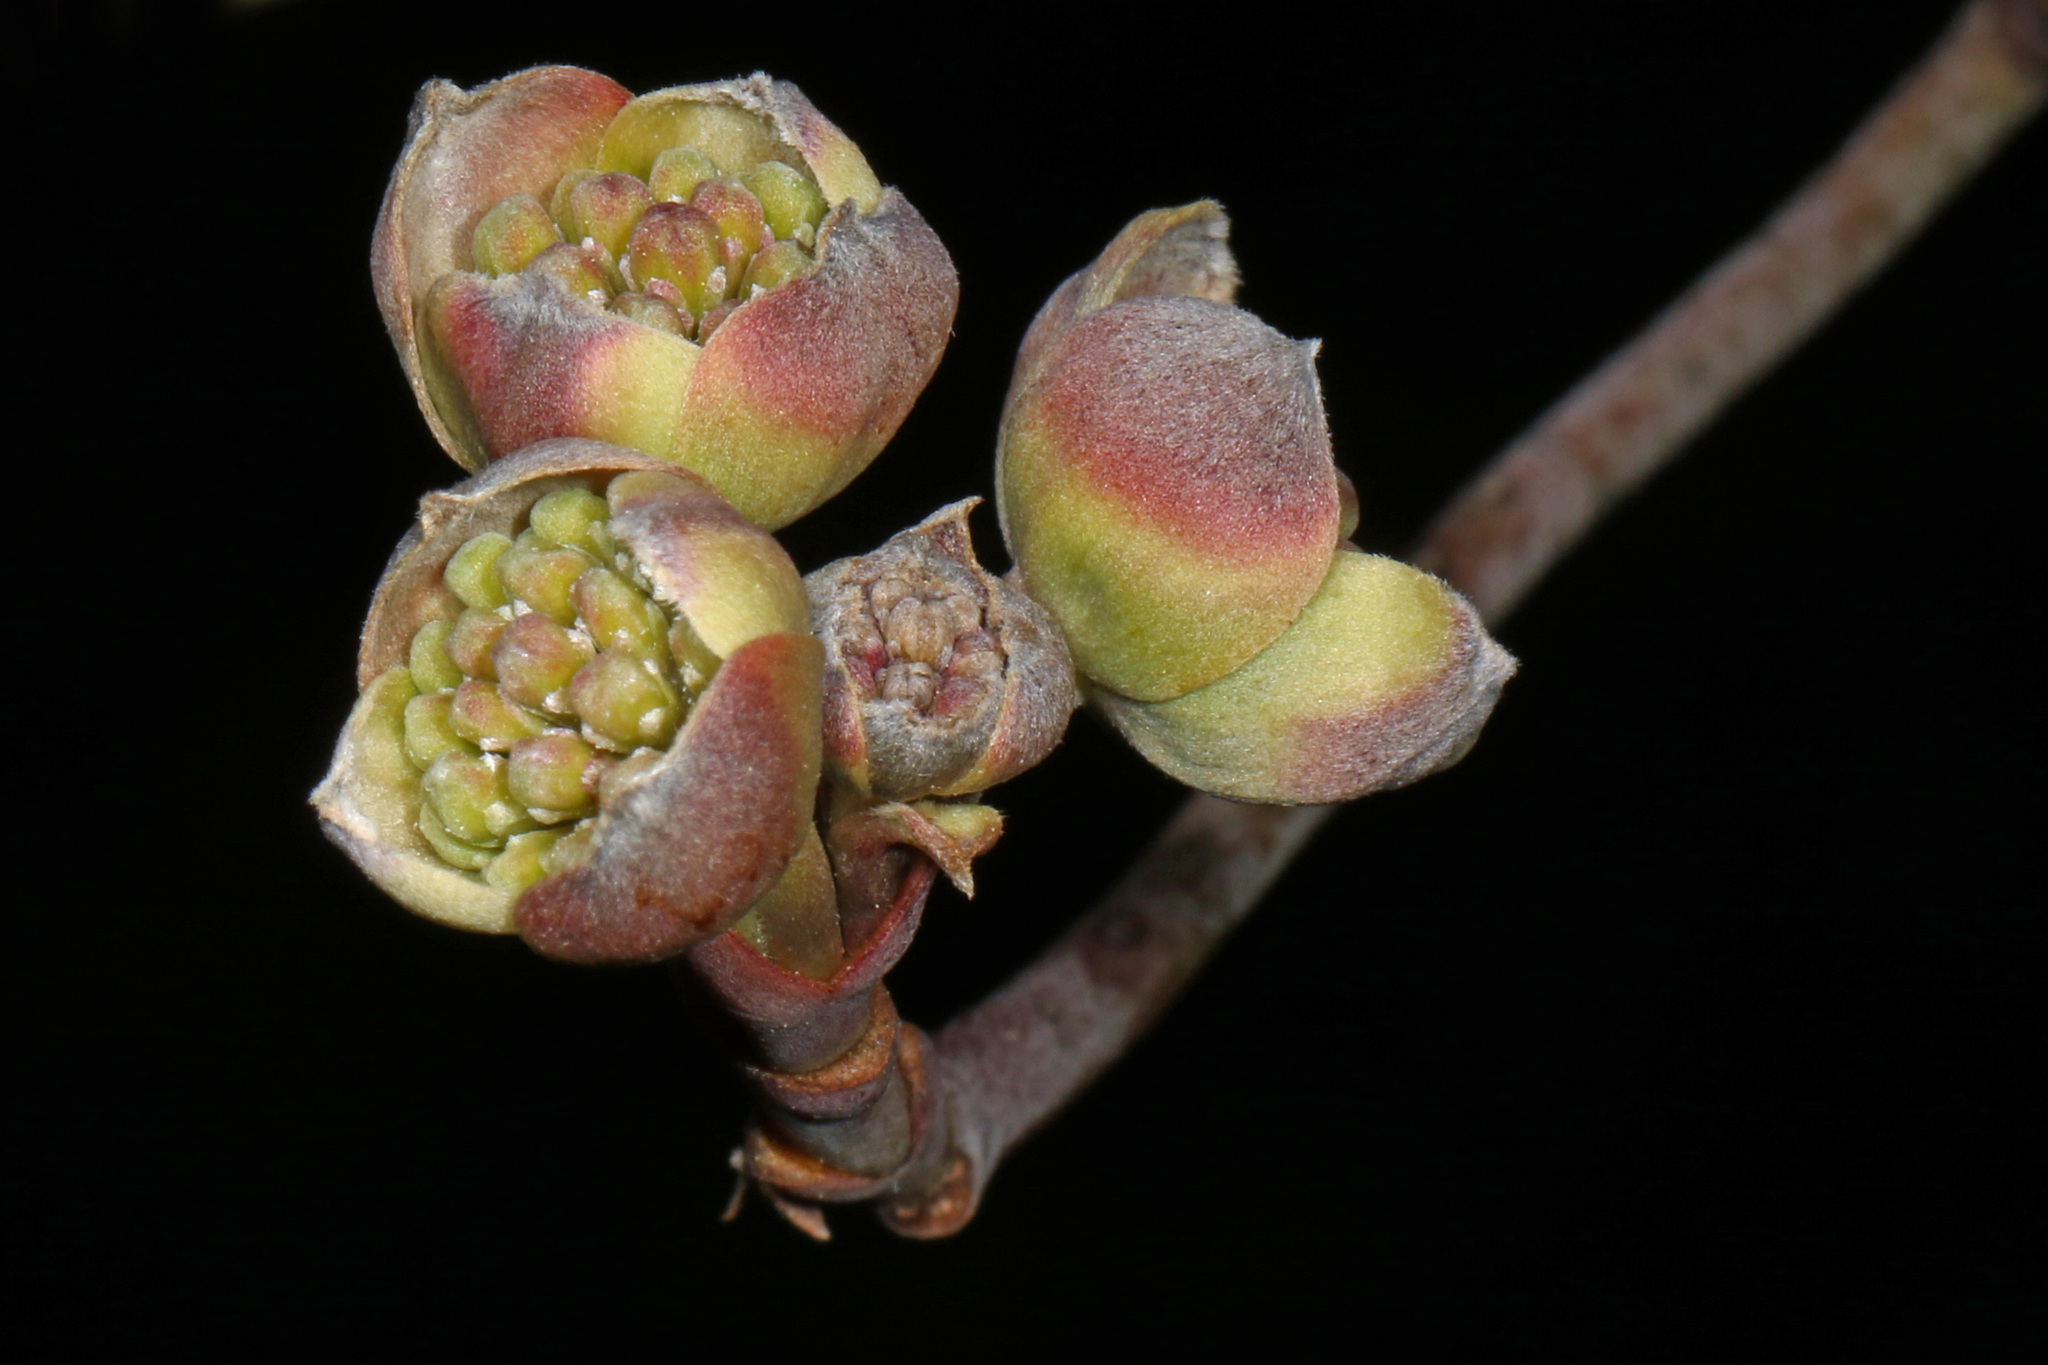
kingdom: Plantae
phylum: Tracheophyta
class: Magnoliopsida
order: Cornales
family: Cornaceae
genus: Cornus
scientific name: Cornus florida
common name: Flowering dogwood
